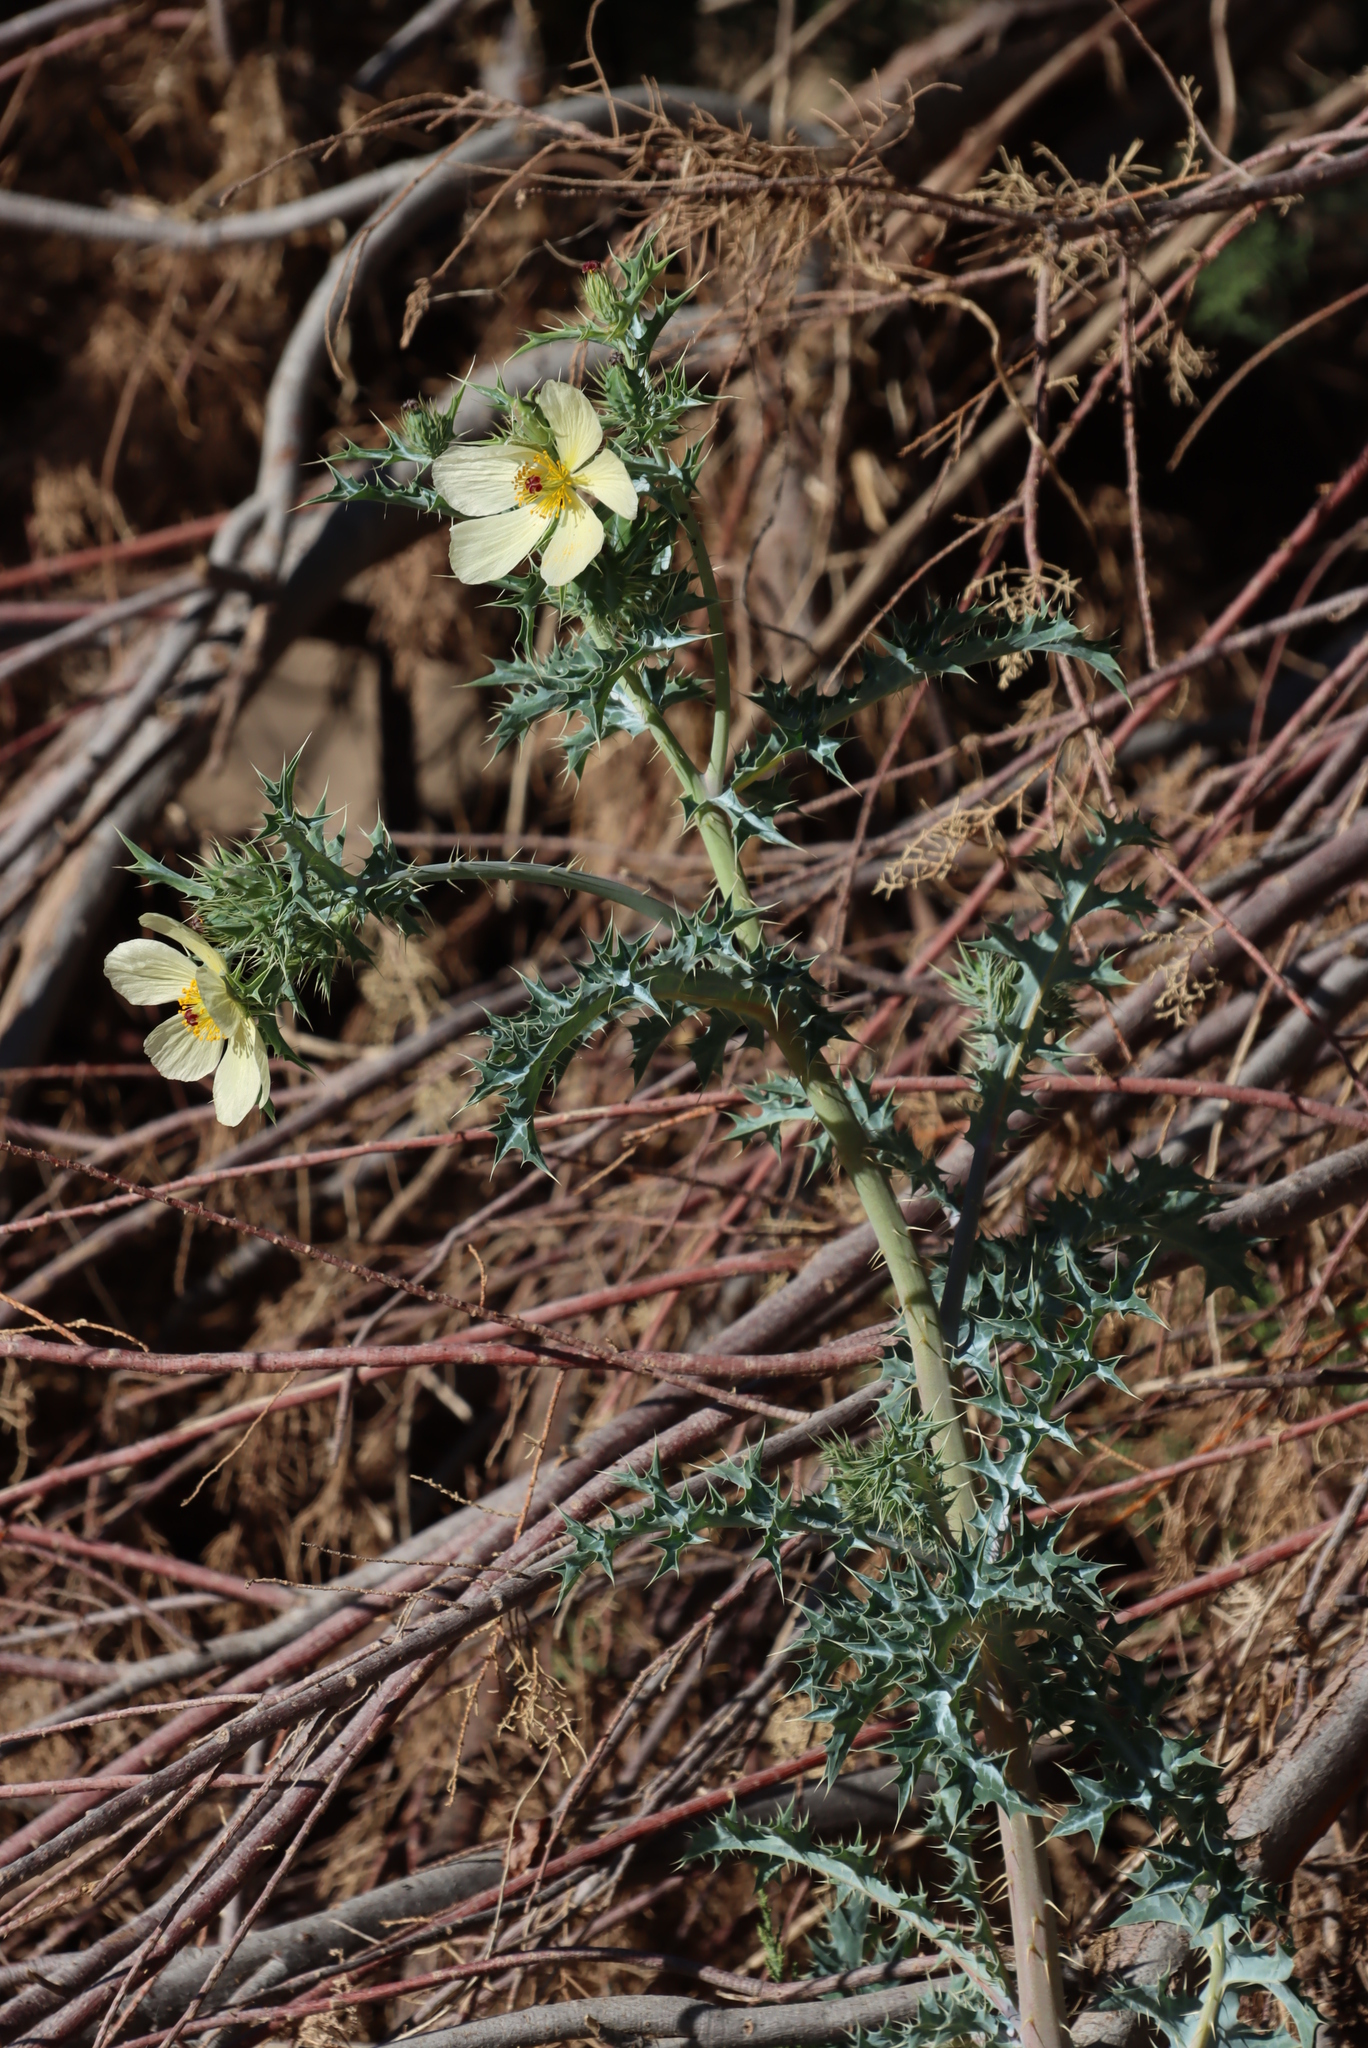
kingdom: Plantae
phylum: Tracheophyta
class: Magnoliopsida
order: Ranunculales
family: Papaveraceae
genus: Argemone
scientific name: Argemone ochroleuca
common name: White-flower mexican-poppy
